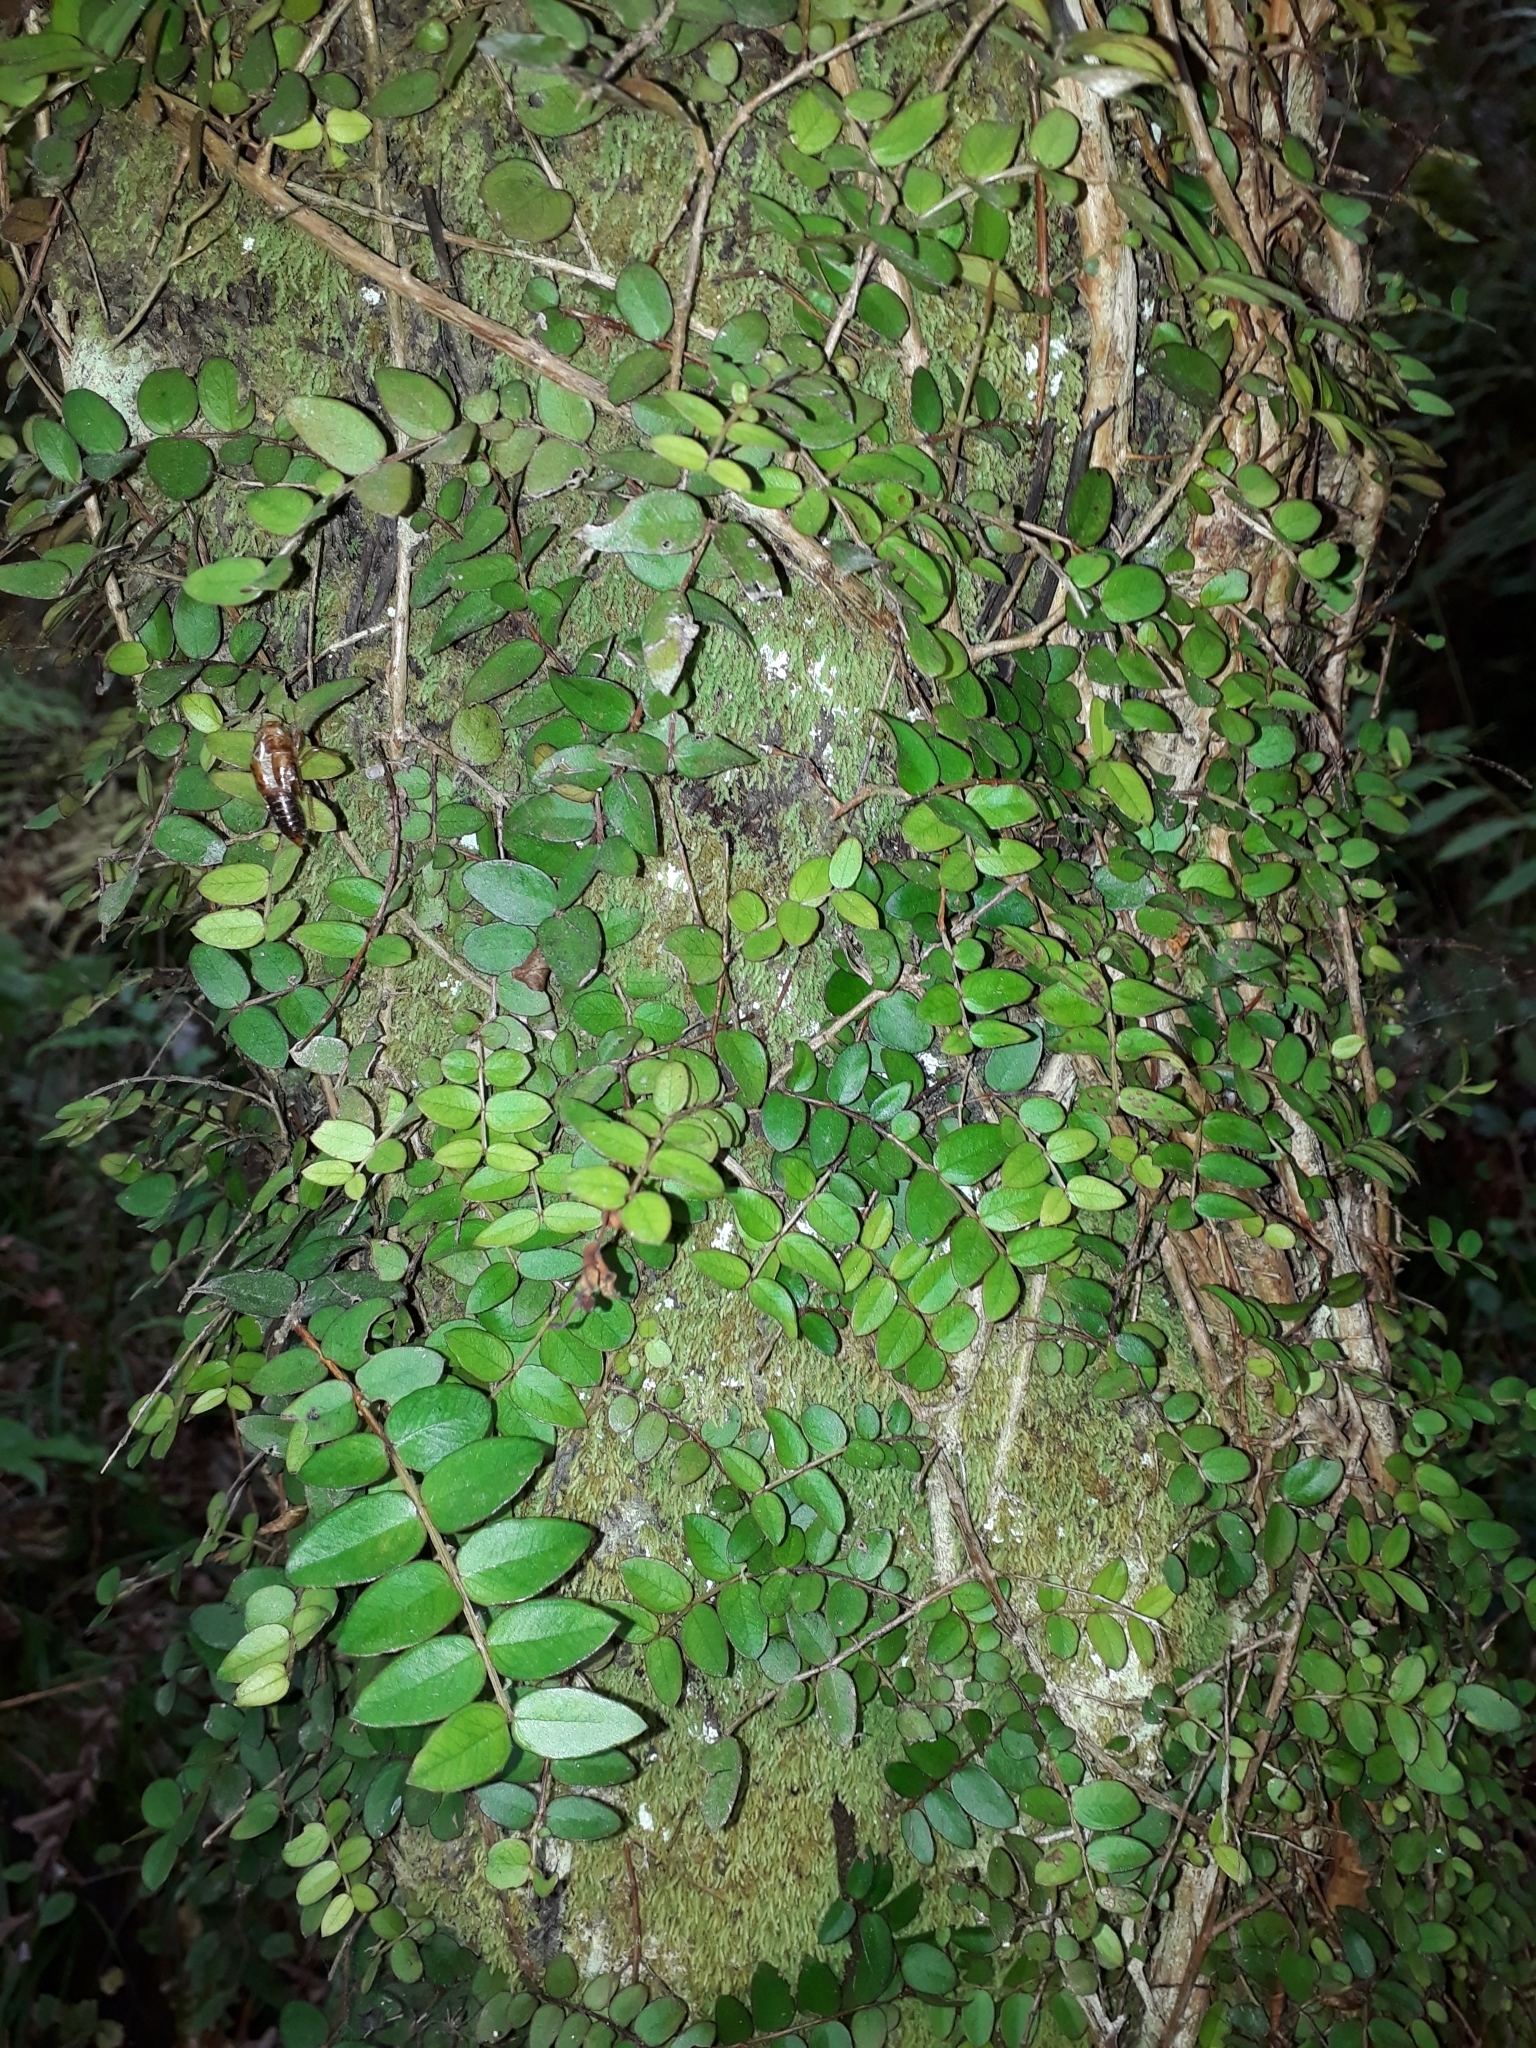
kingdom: Plantae
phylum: Tracheophyta
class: Magnoliopsida
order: Myrtales
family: Myrtaceae
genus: Metrosideros
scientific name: Metrosideros diffusa
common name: Small ratavine
